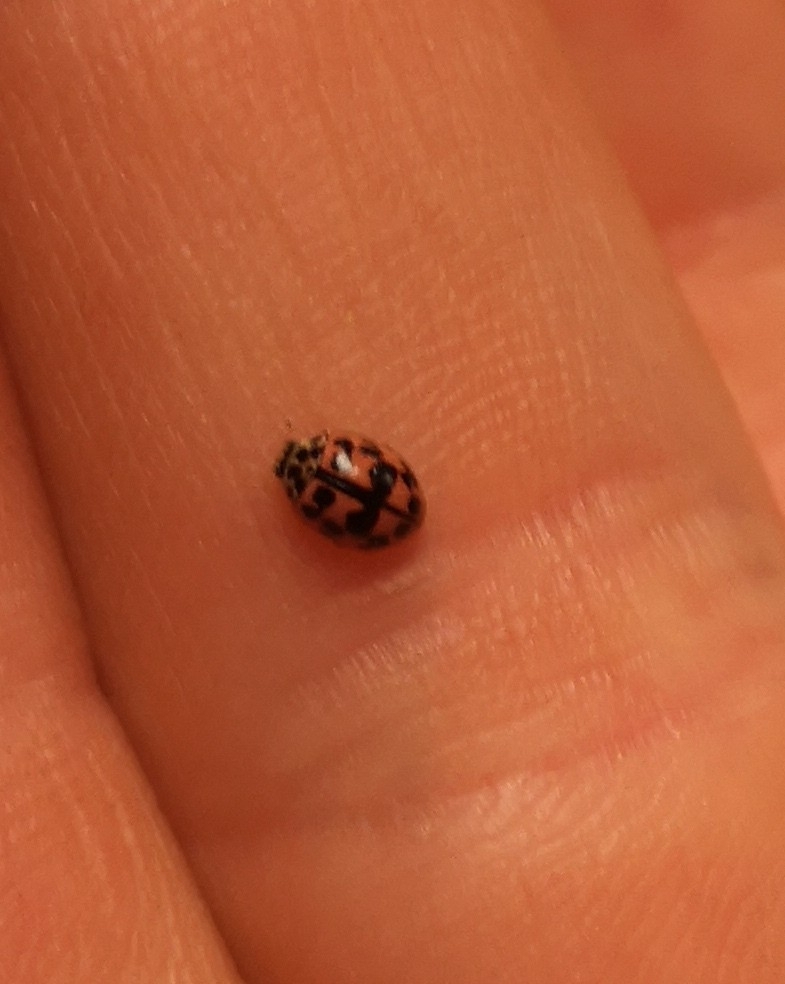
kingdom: Animalia
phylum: Arthropoda
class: Insecta
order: Coleoptera
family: Coccinellidae
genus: Oenopia
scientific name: Oenopia conglobata
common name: Ladybird beetle
